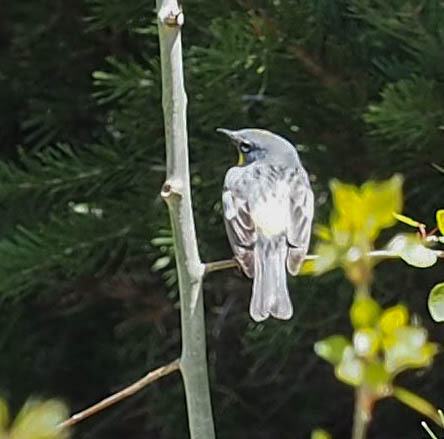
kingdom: Animalia
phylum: Chordata
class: Aves
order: Passeriformes
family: Parulidae
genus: Setophaga
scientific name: Setophaga coronata
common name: Myrtle warbler
